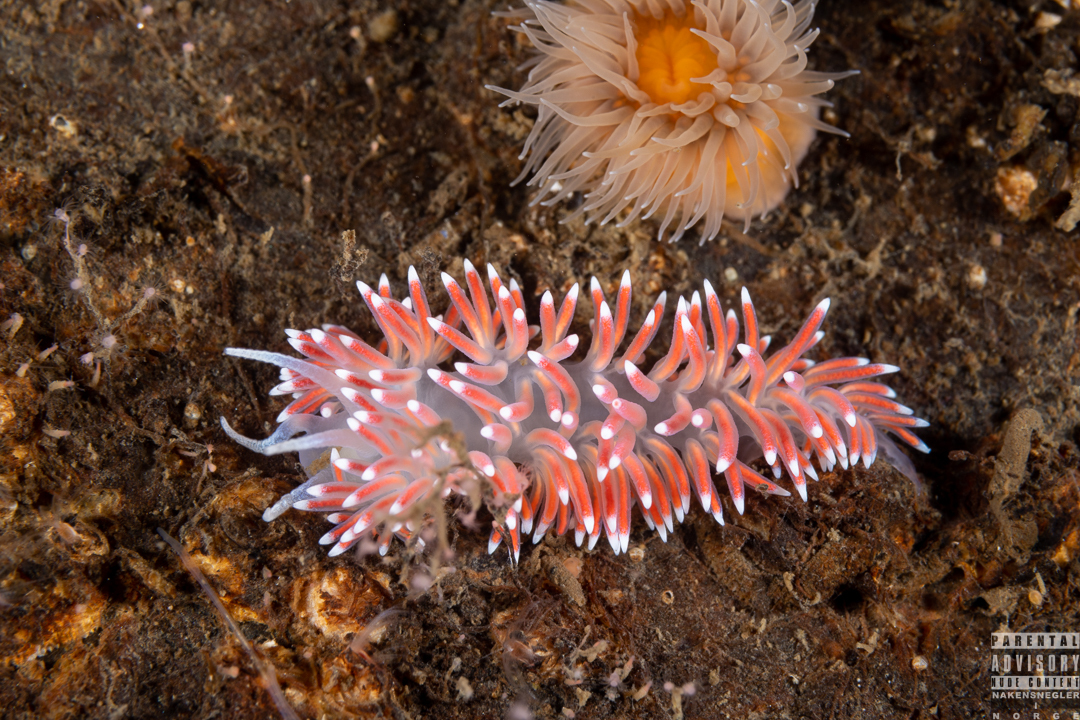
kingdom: Animalia
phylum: Mollusca
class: Gastropoda
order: Nudibranchia
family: Flabellinidae
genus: Carronella
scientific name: Carronella pellucida
